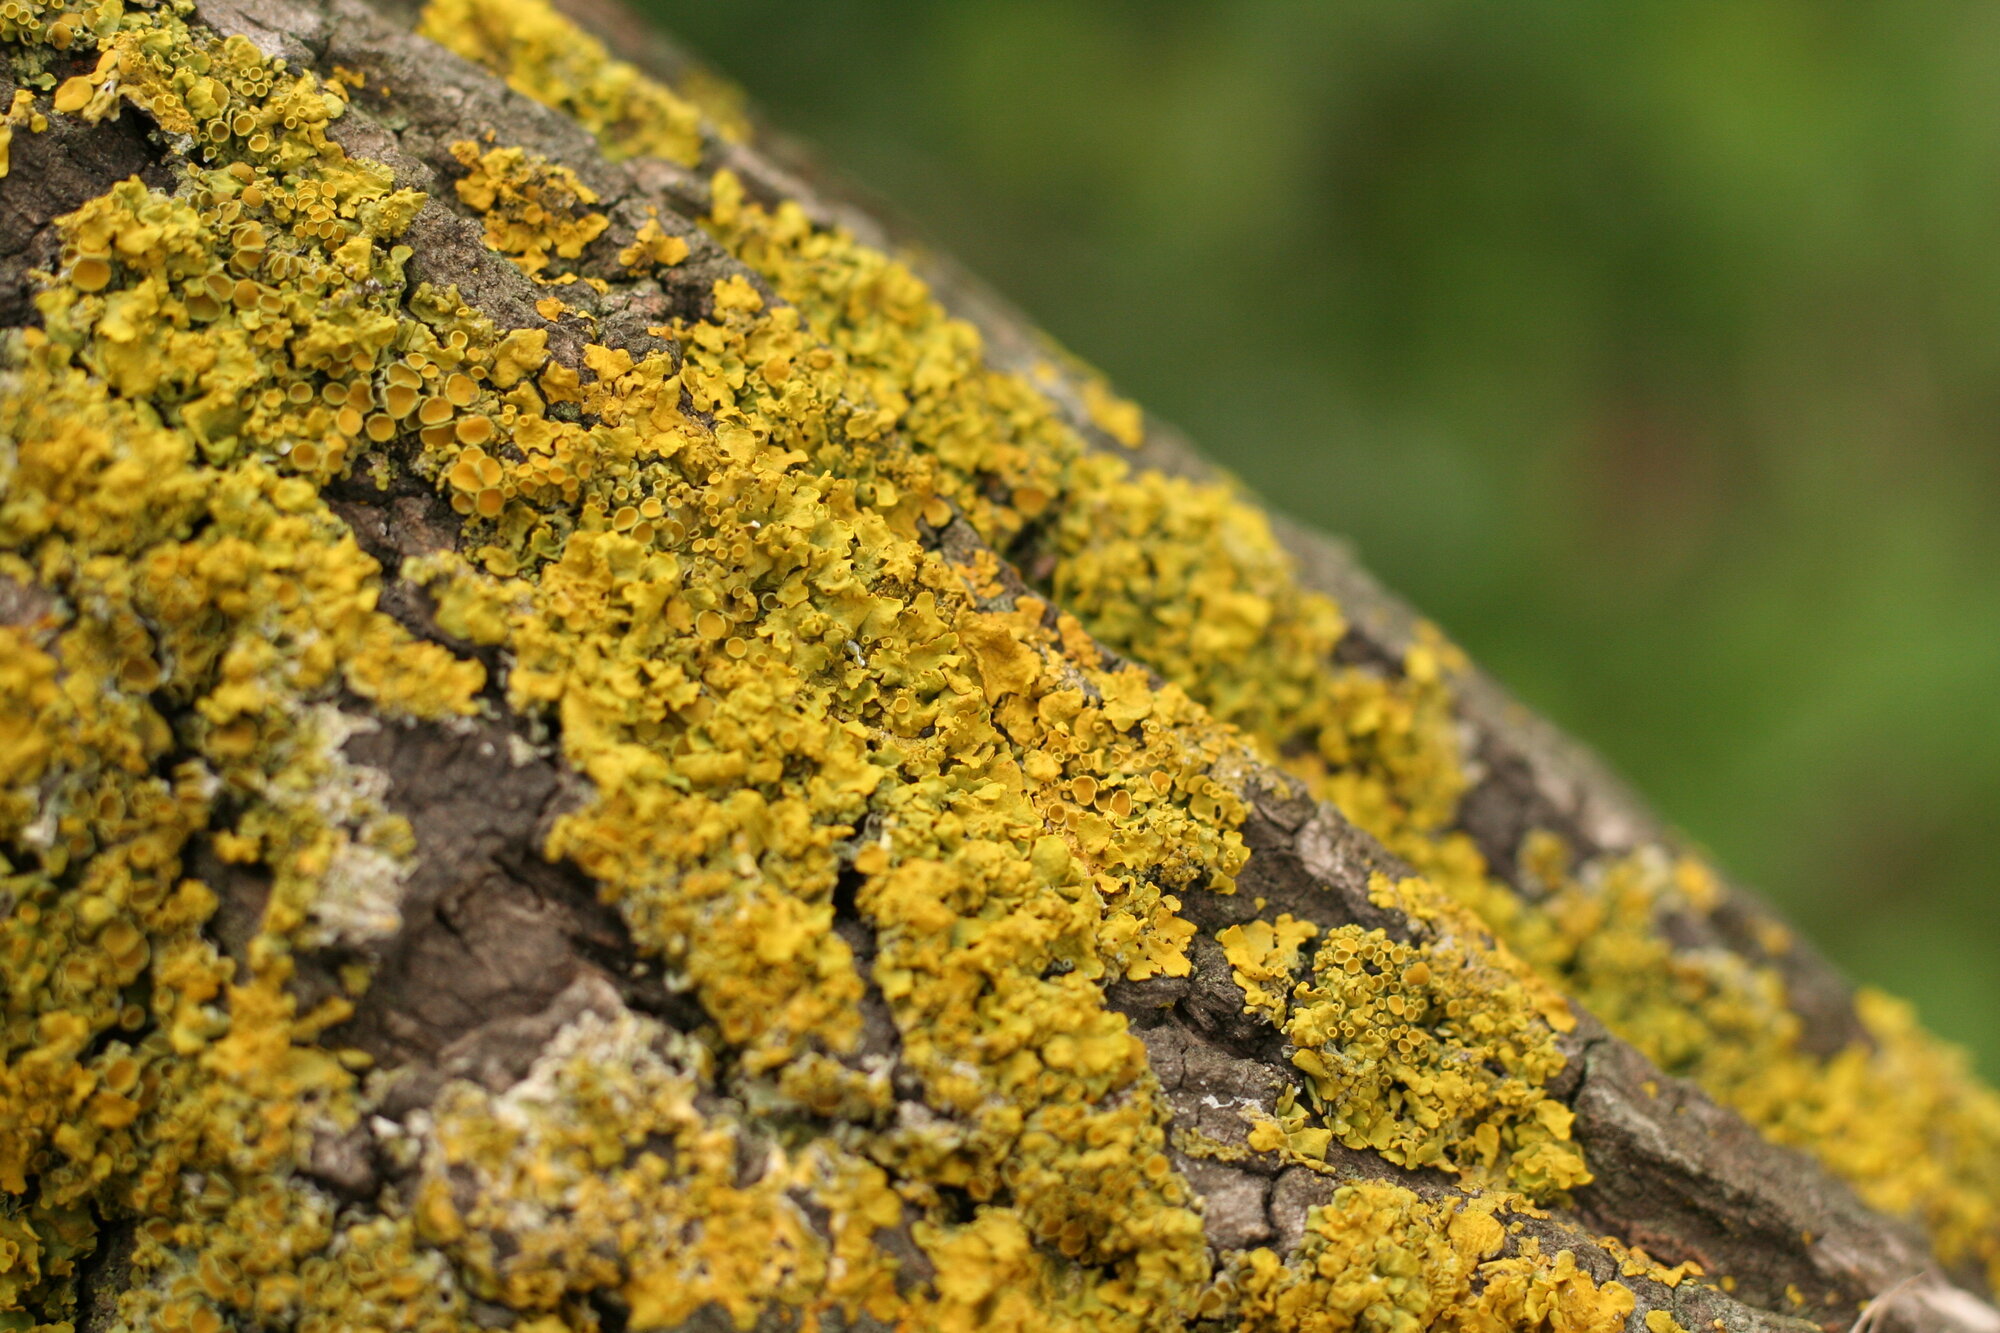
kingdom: Fungi
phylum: Ascomycota
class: Lecanoromycetes
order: Teloschistales
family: Teloschistaceae
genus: Xanthoria
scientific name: Xanthoria parietina
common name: Common orange lichen
